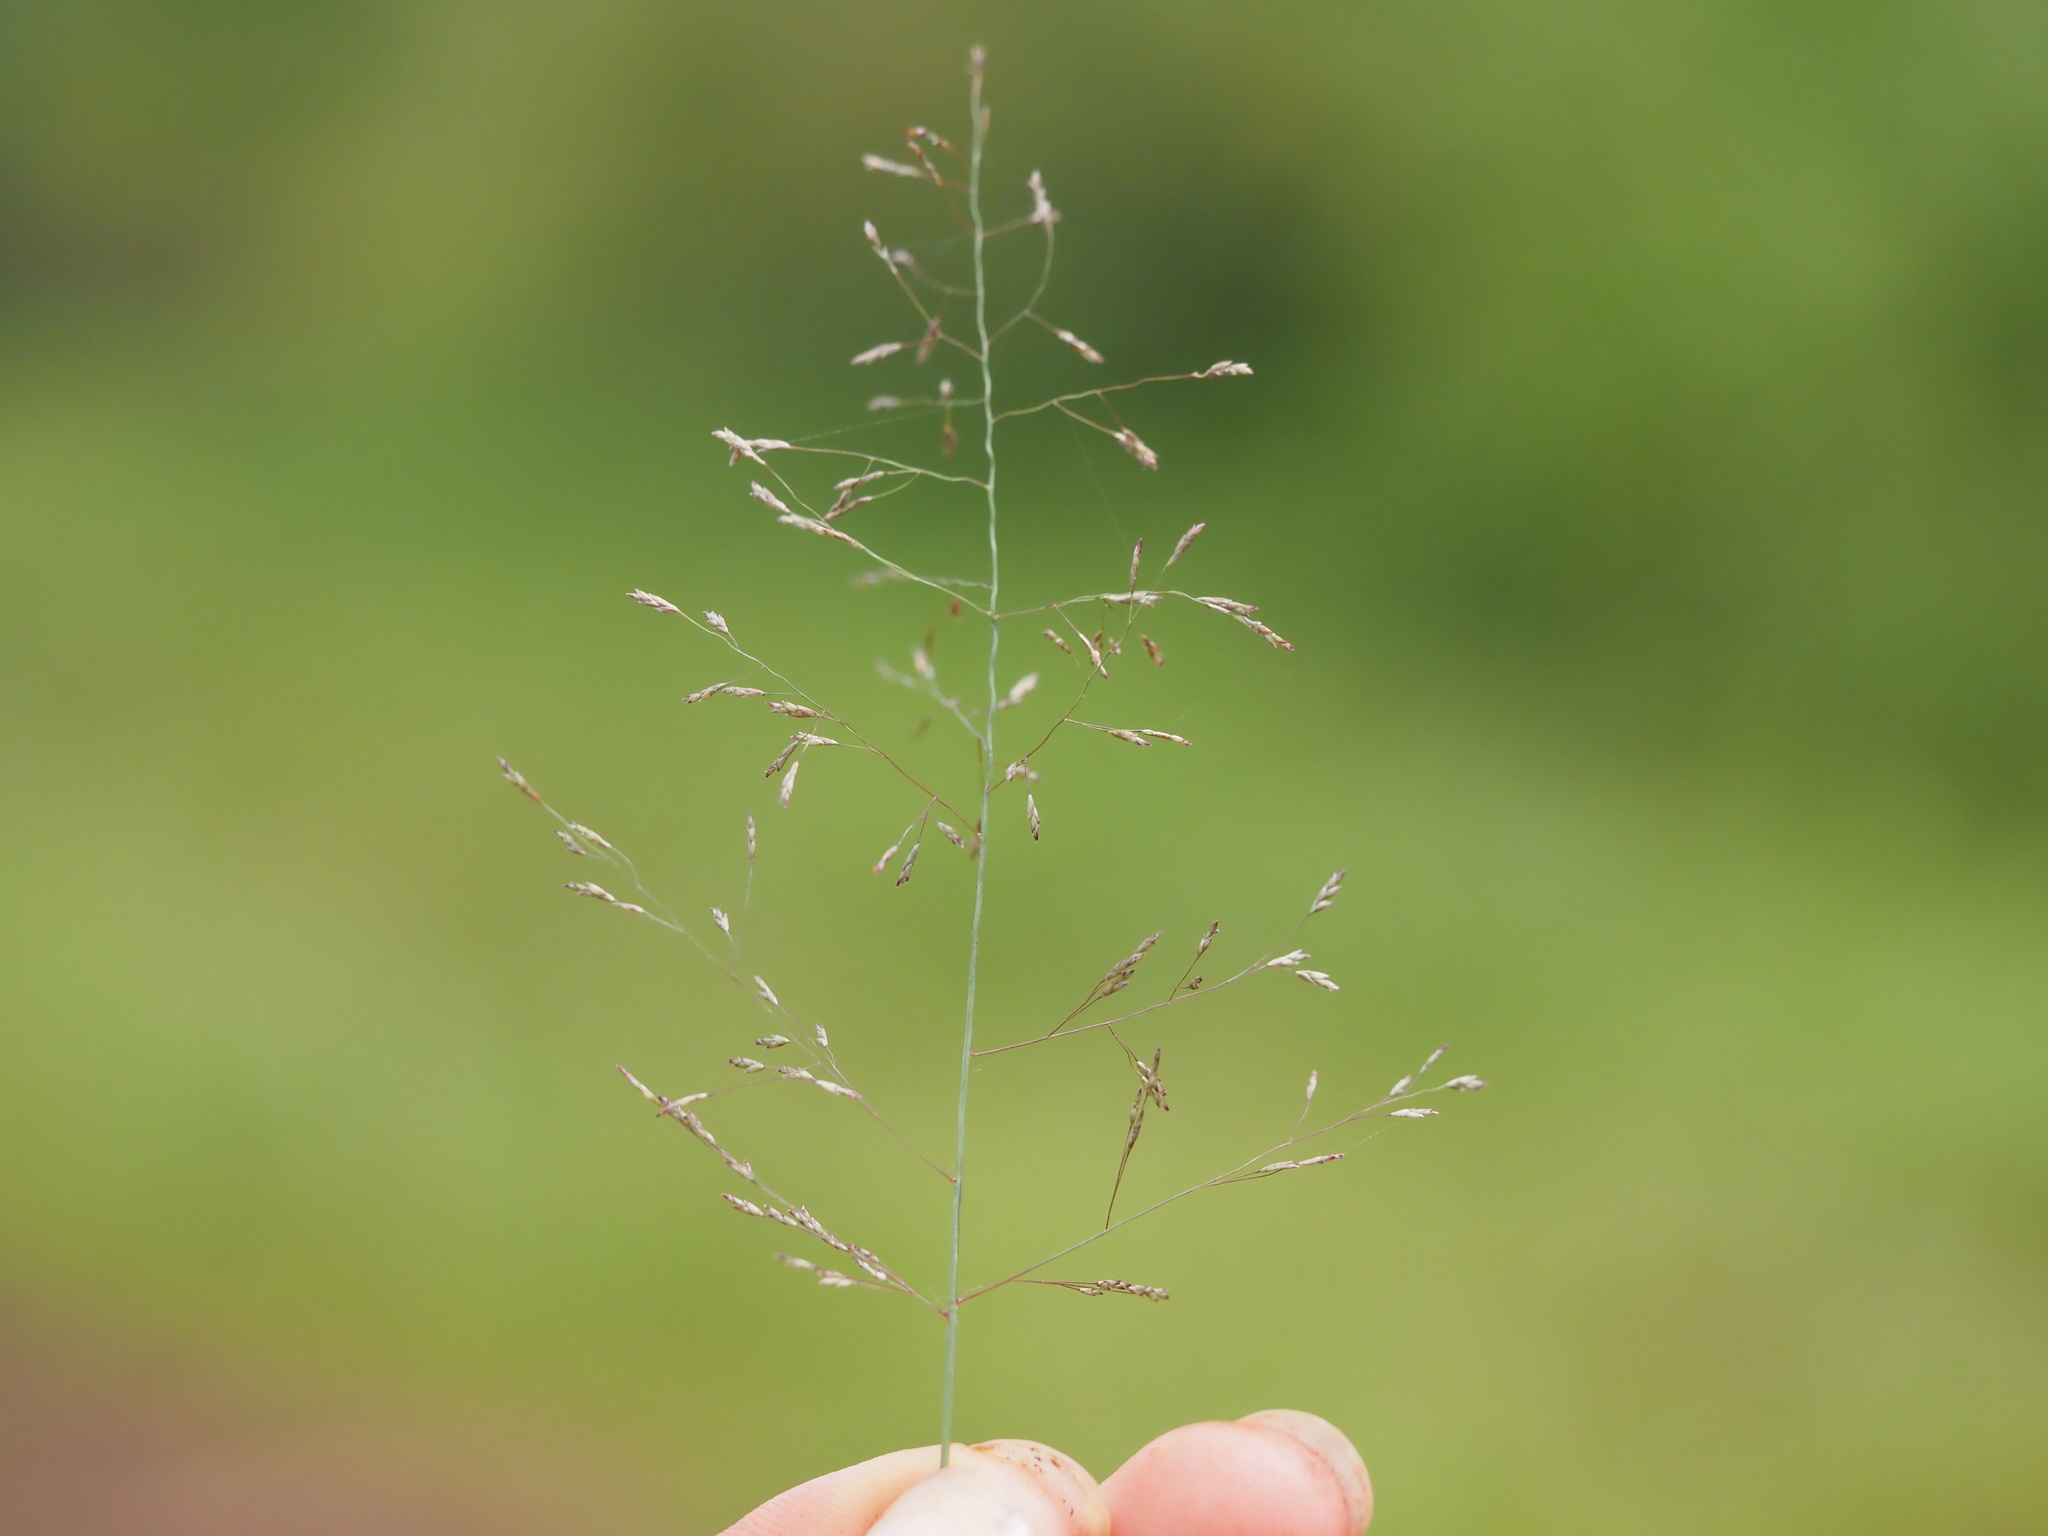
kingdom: Plantae
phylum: Tracheophyta
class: Liliopsida
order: Poales
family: Poaceae
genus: Eragrostis
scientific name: Eragrostis pilosa
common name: Indian lovegrass
